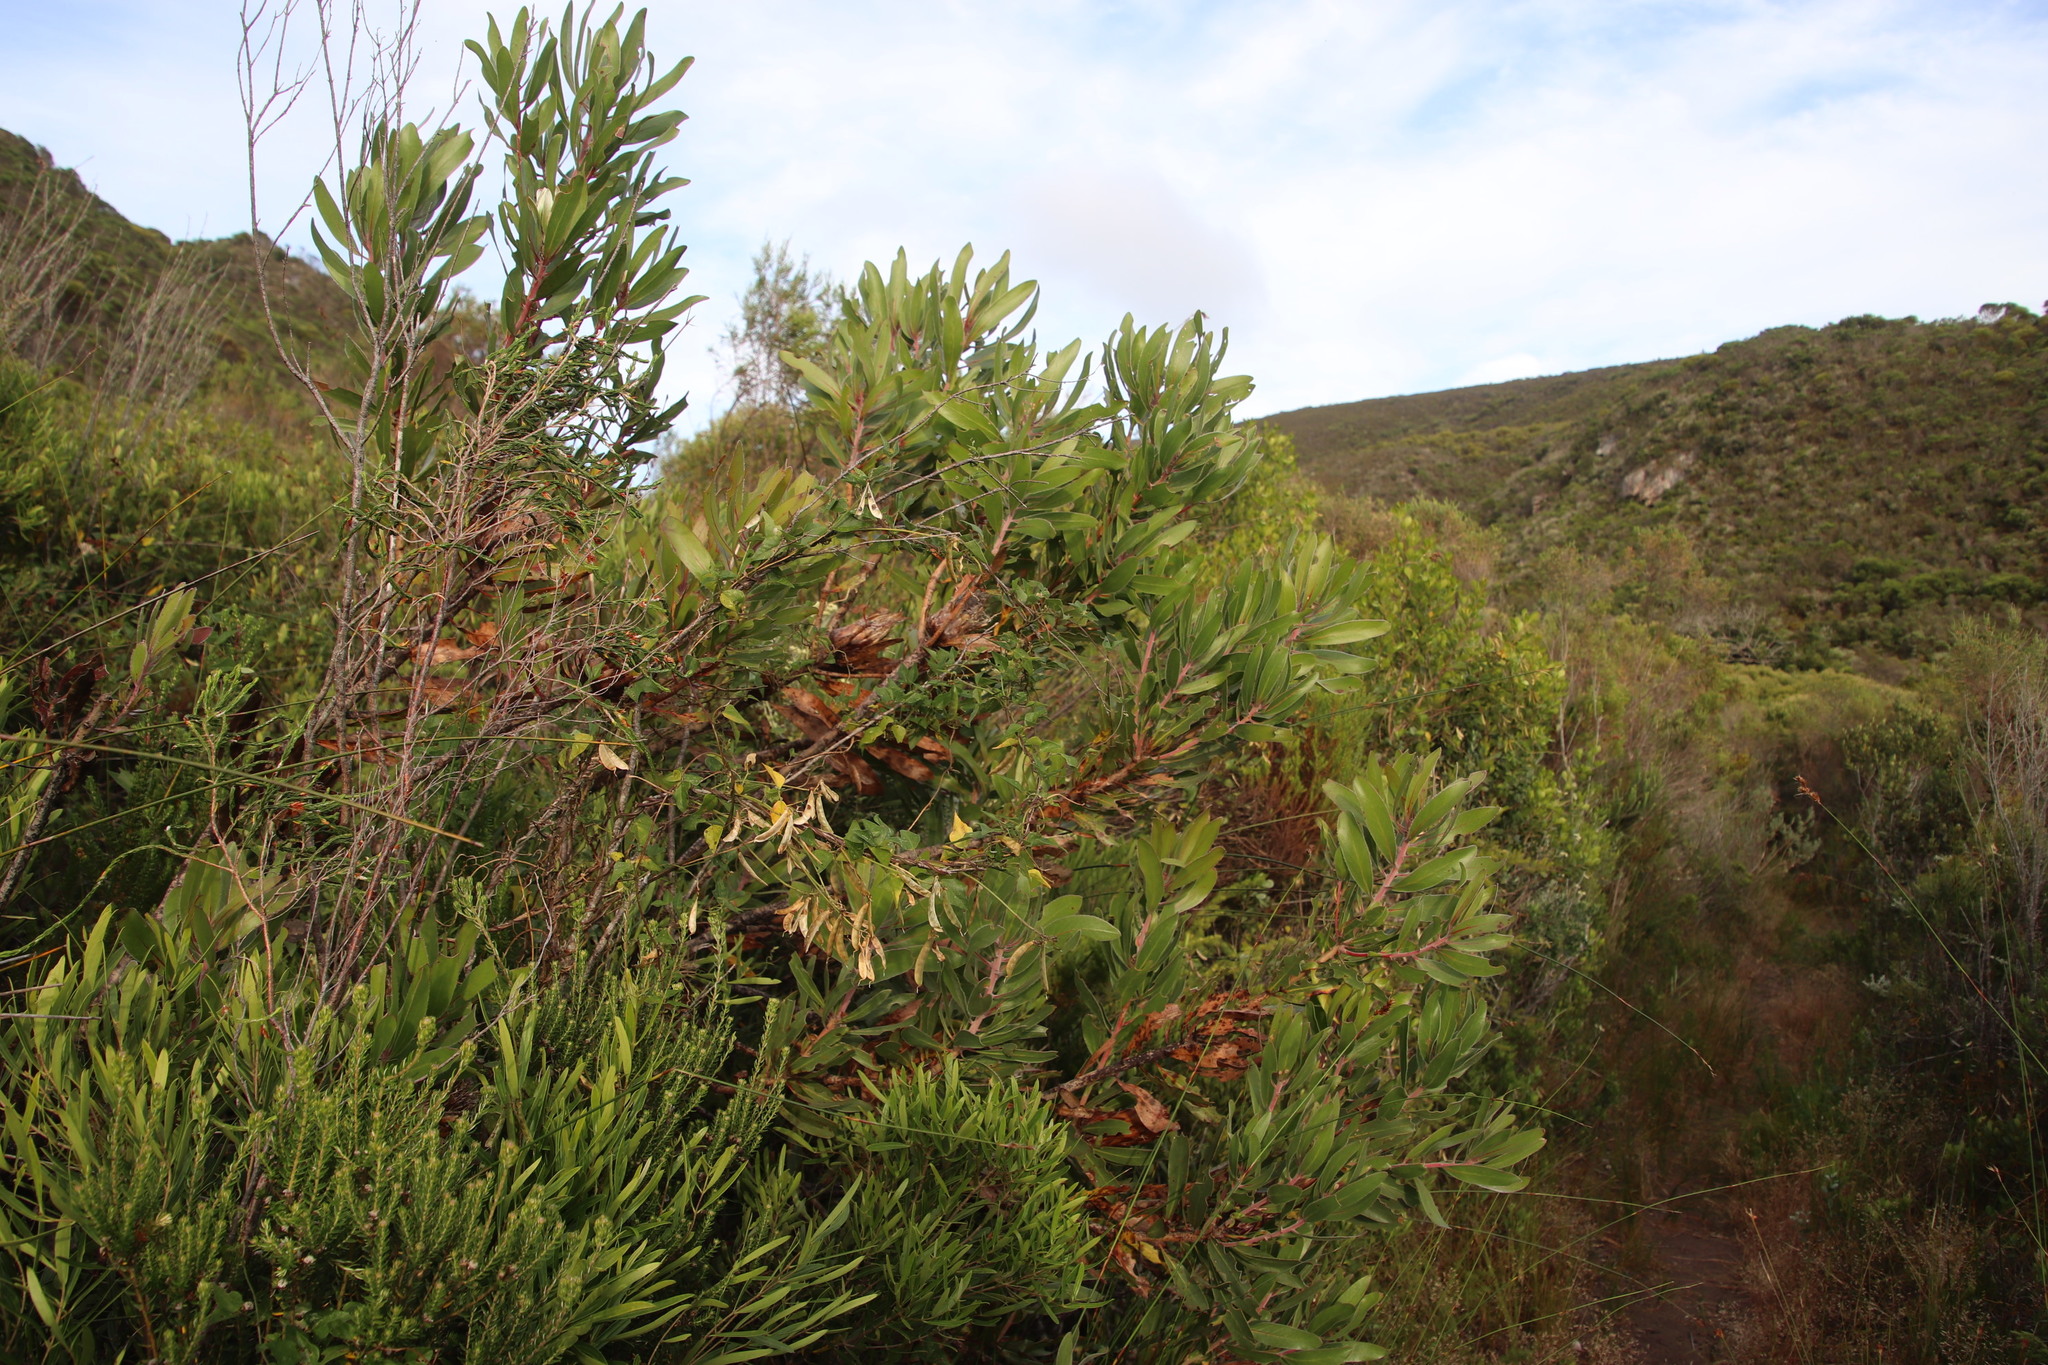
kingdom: Plantae
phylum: Tracheophyta
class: Magnoliopsida
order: Proteales
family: Proteaceae
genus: Protea
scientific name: Protea obtusifolia
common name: Bredasdorp sugarbush
